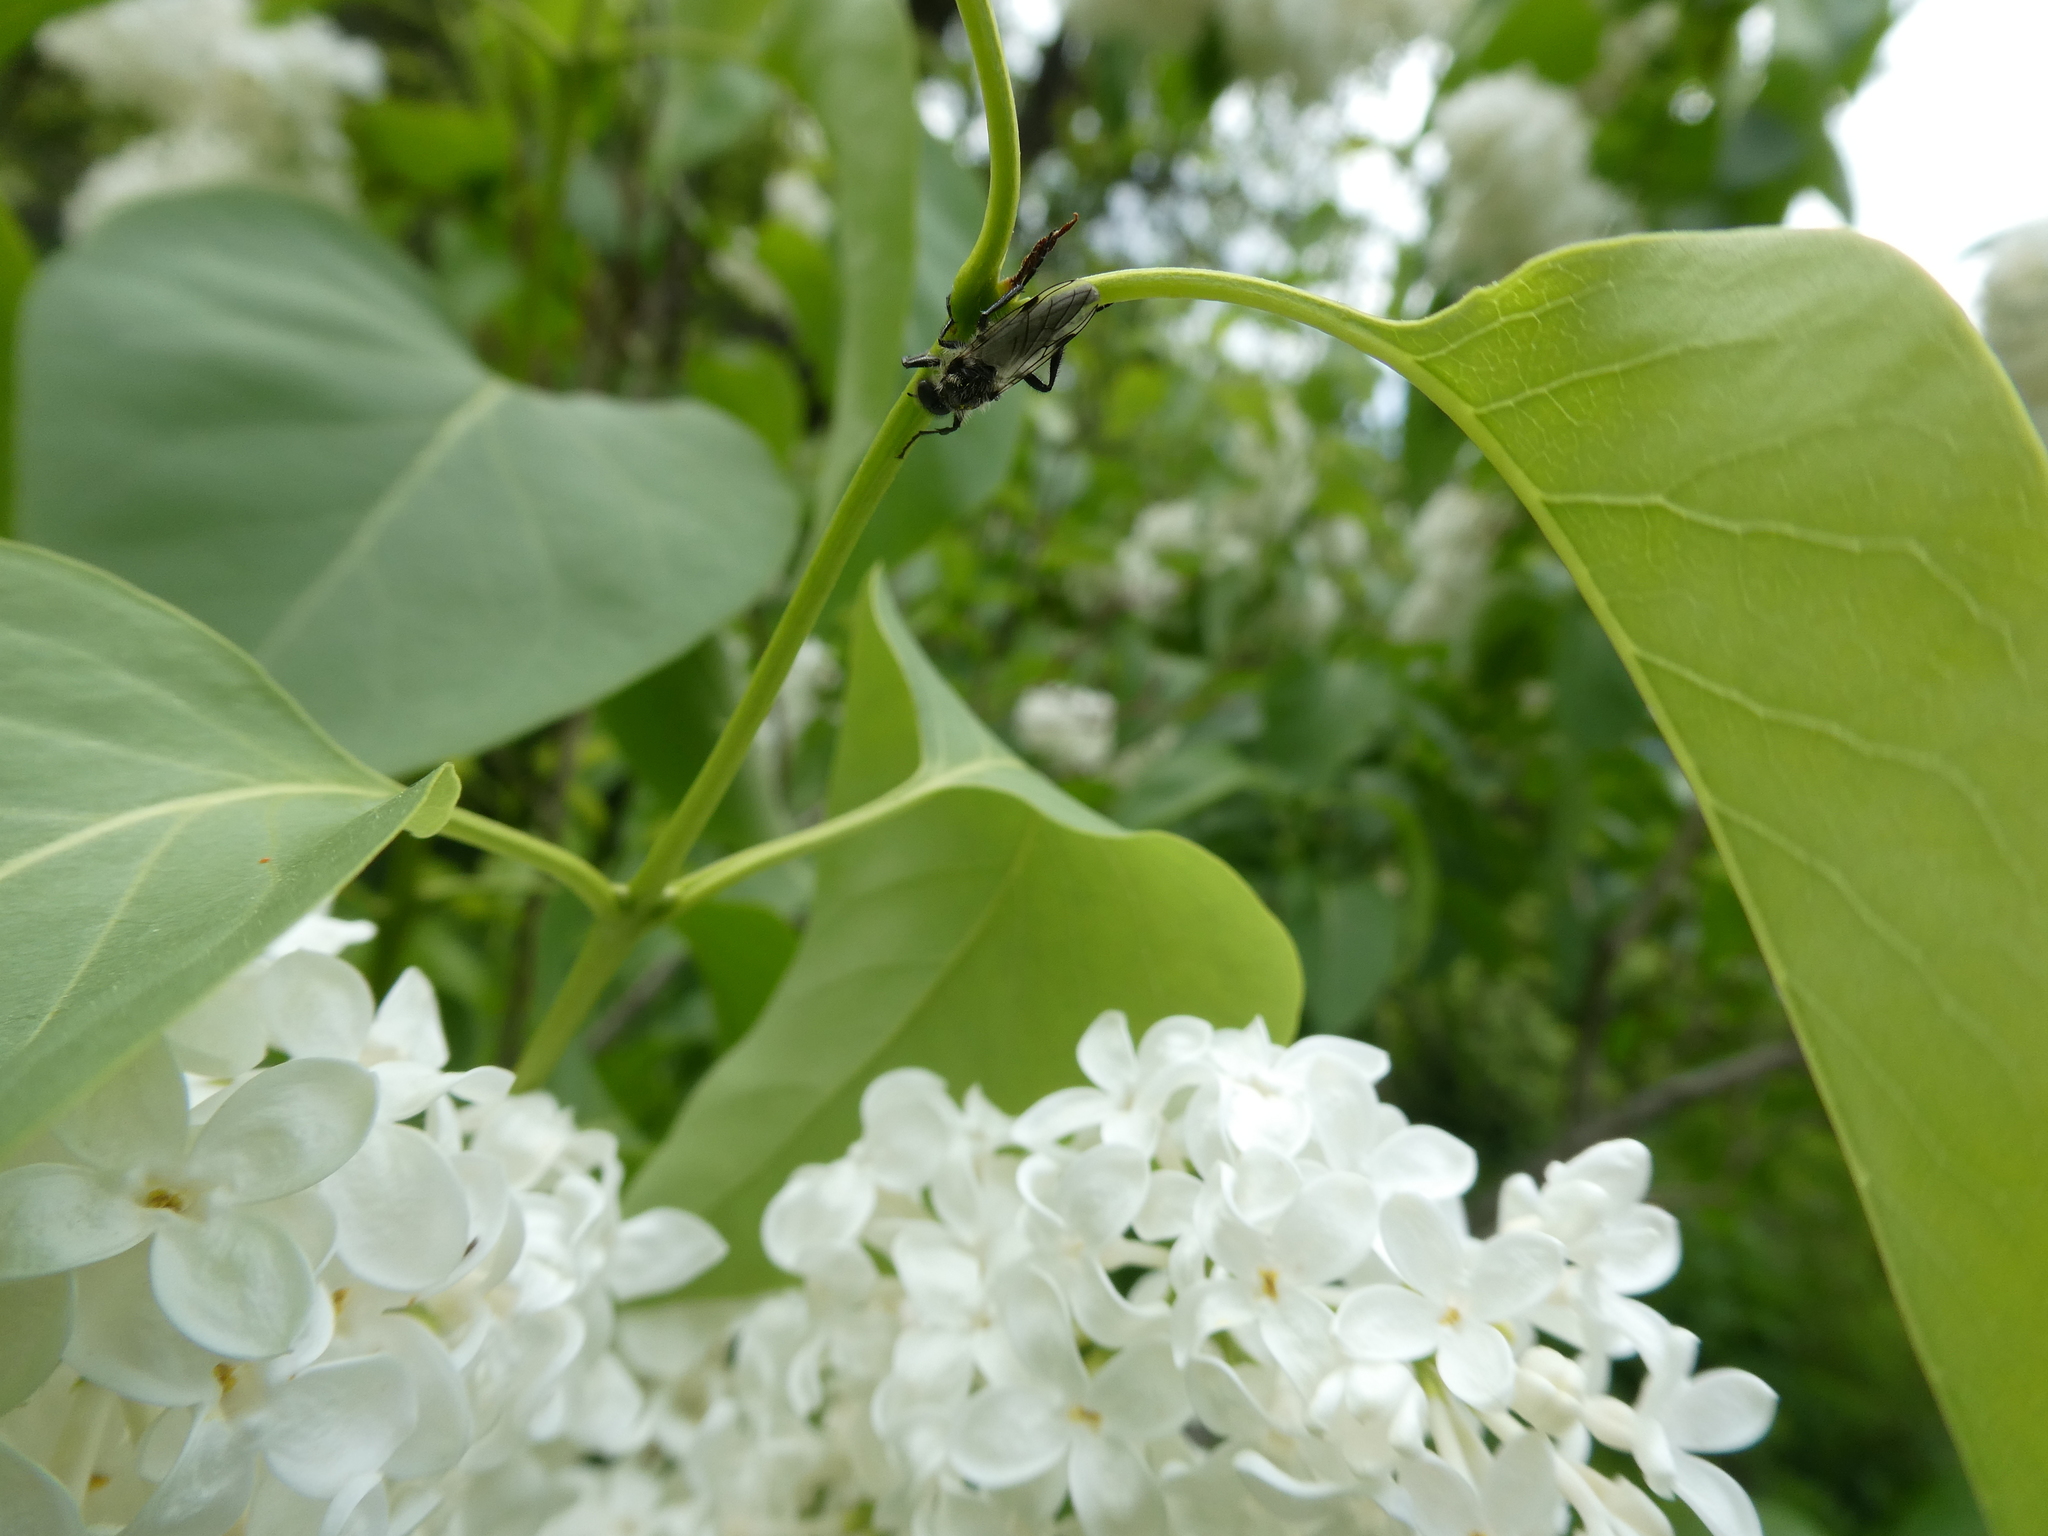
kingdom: Animalia
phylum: Arthropoda
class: Insecta
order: Diptera
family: Bibionidae
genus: Bibio
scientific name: Bibio
